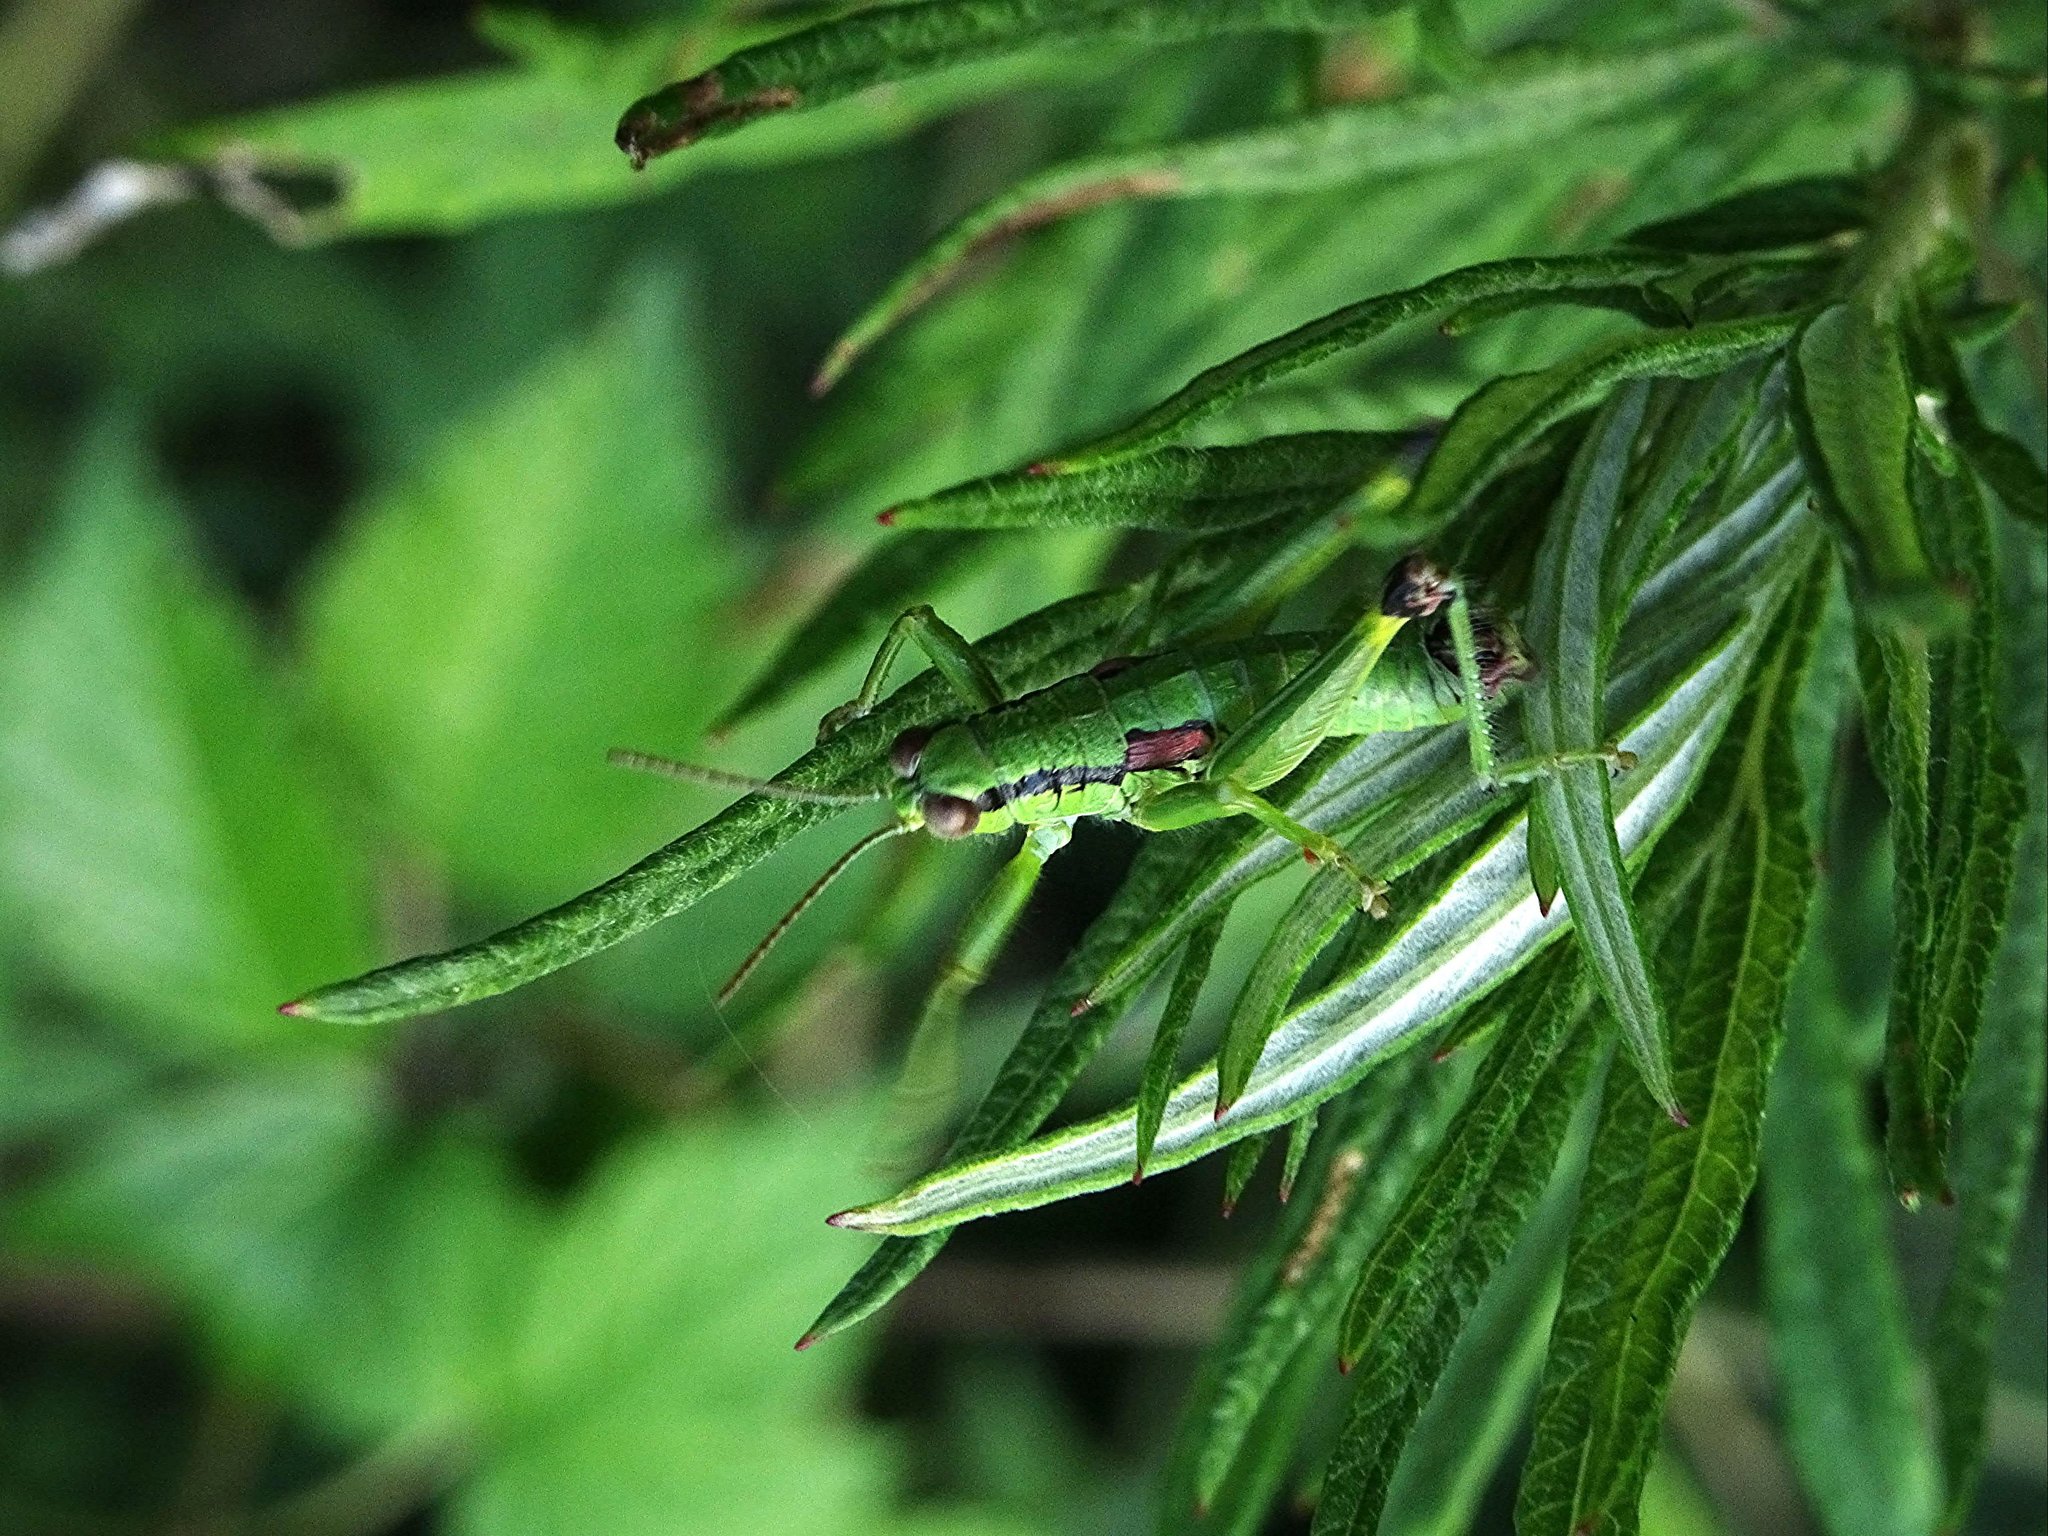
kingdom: Animalia
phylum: Arthropoda
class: Insecta
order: Orthoptera
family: Acrididae
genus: Odontopodisma
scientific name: Odontopodisma decipiens
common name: Cheating mountain grasshopper
